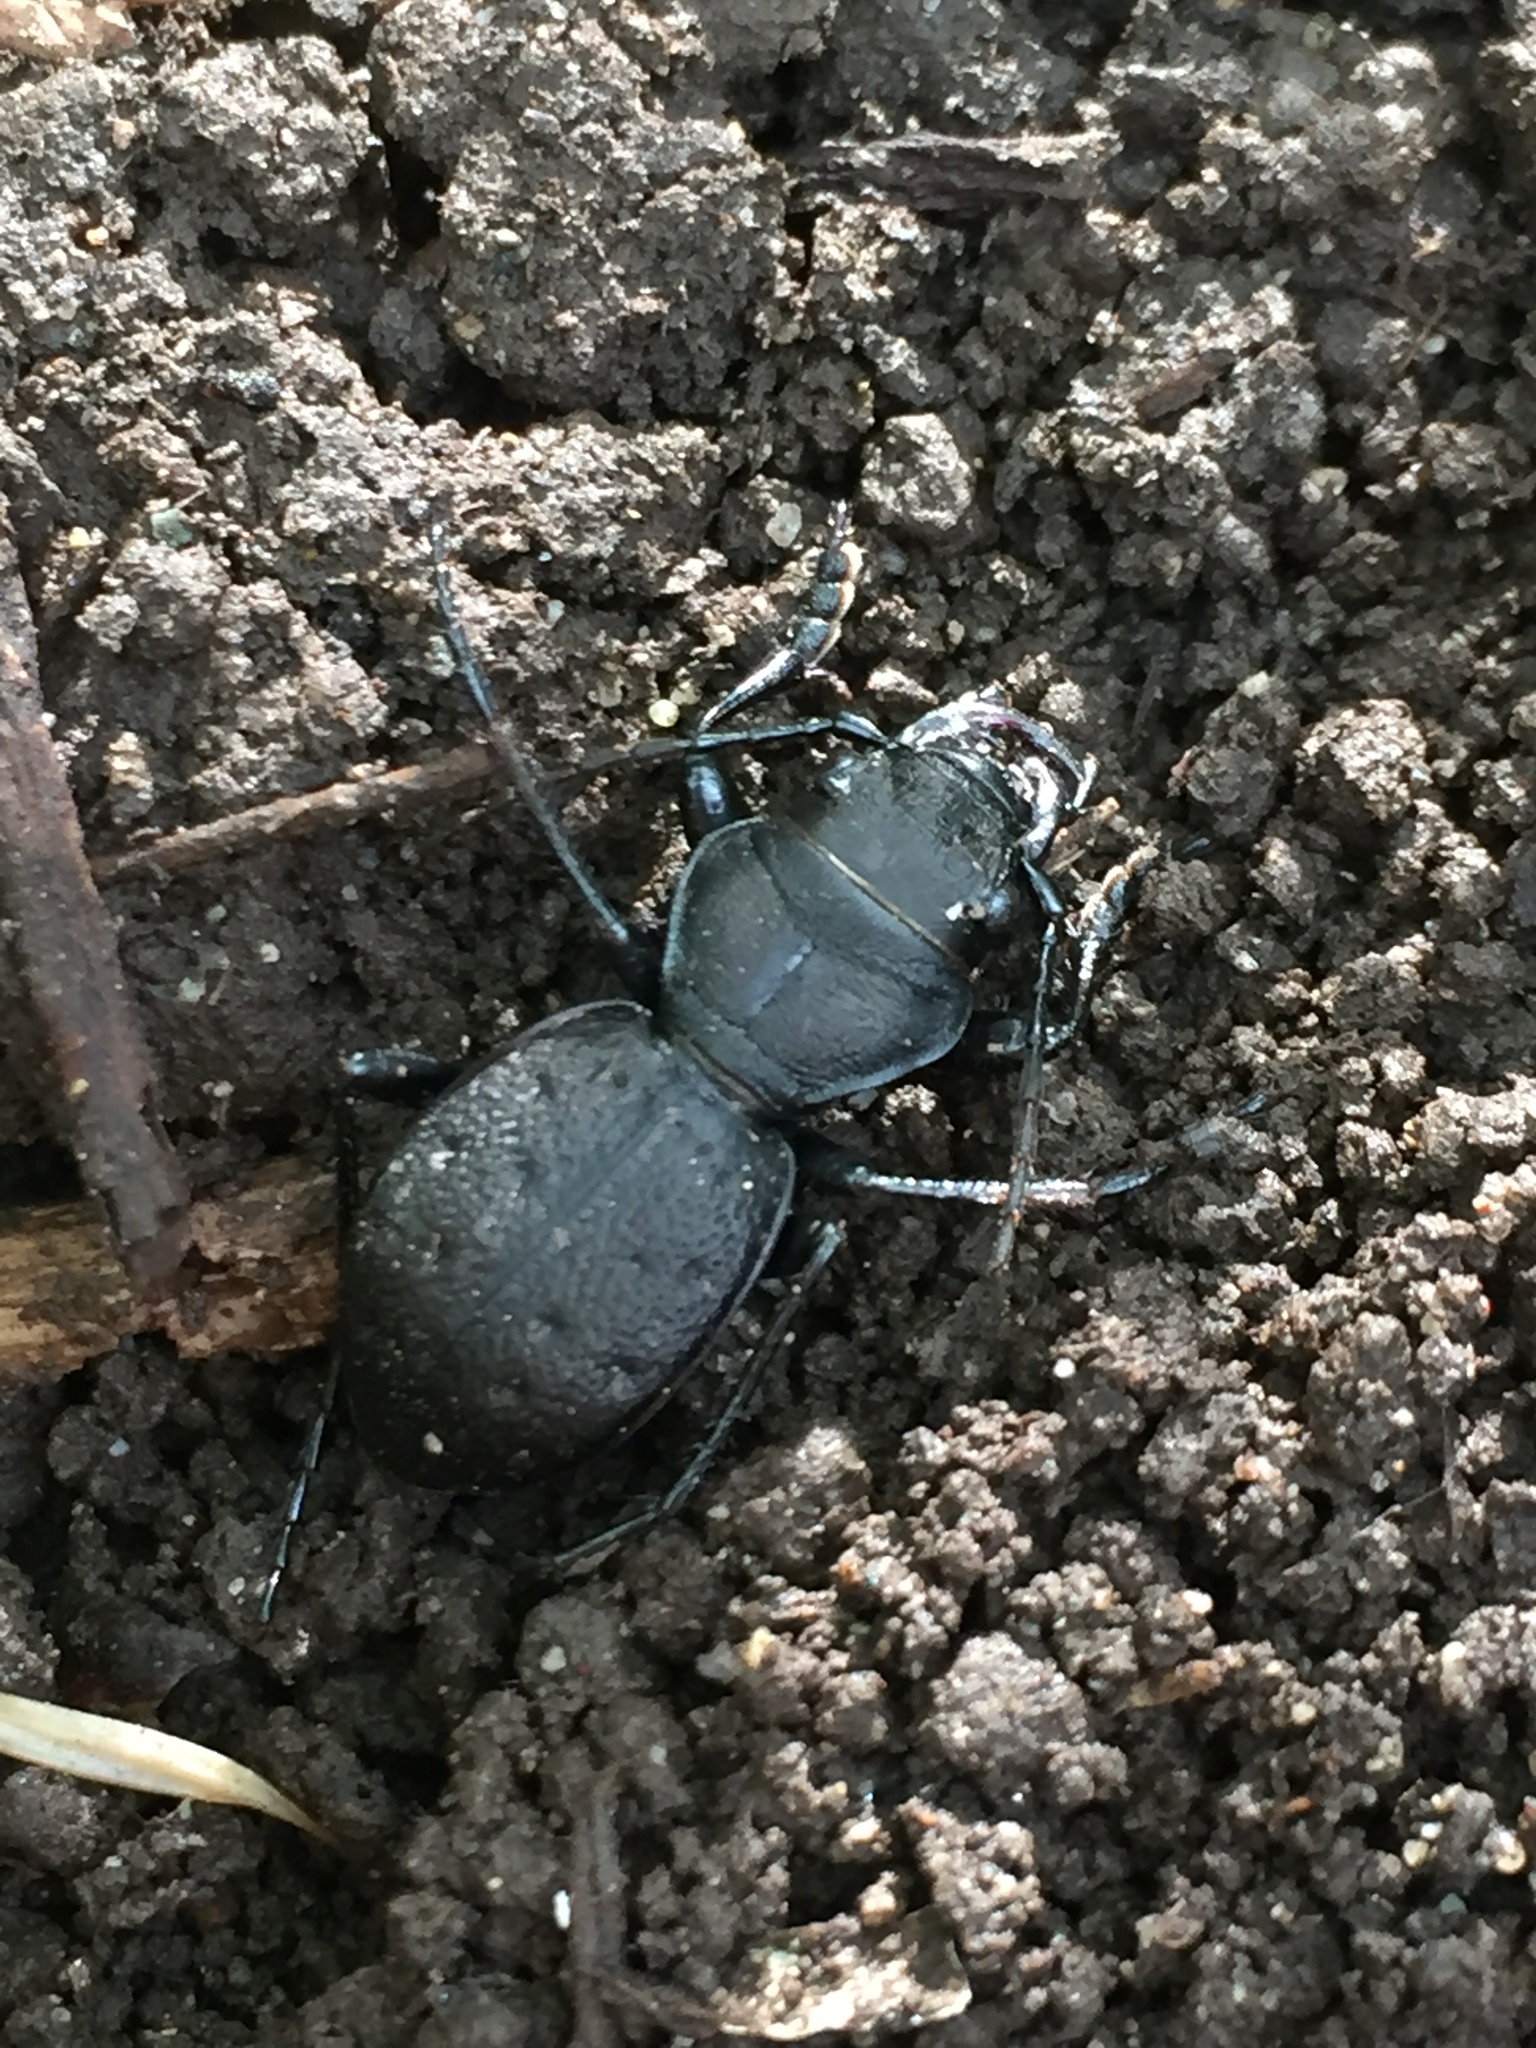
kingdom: Animalia
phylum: Arthropoda
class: Insecta
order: Coleoptera
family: Carabidae
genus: Omus
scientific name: Omus dejeanii
